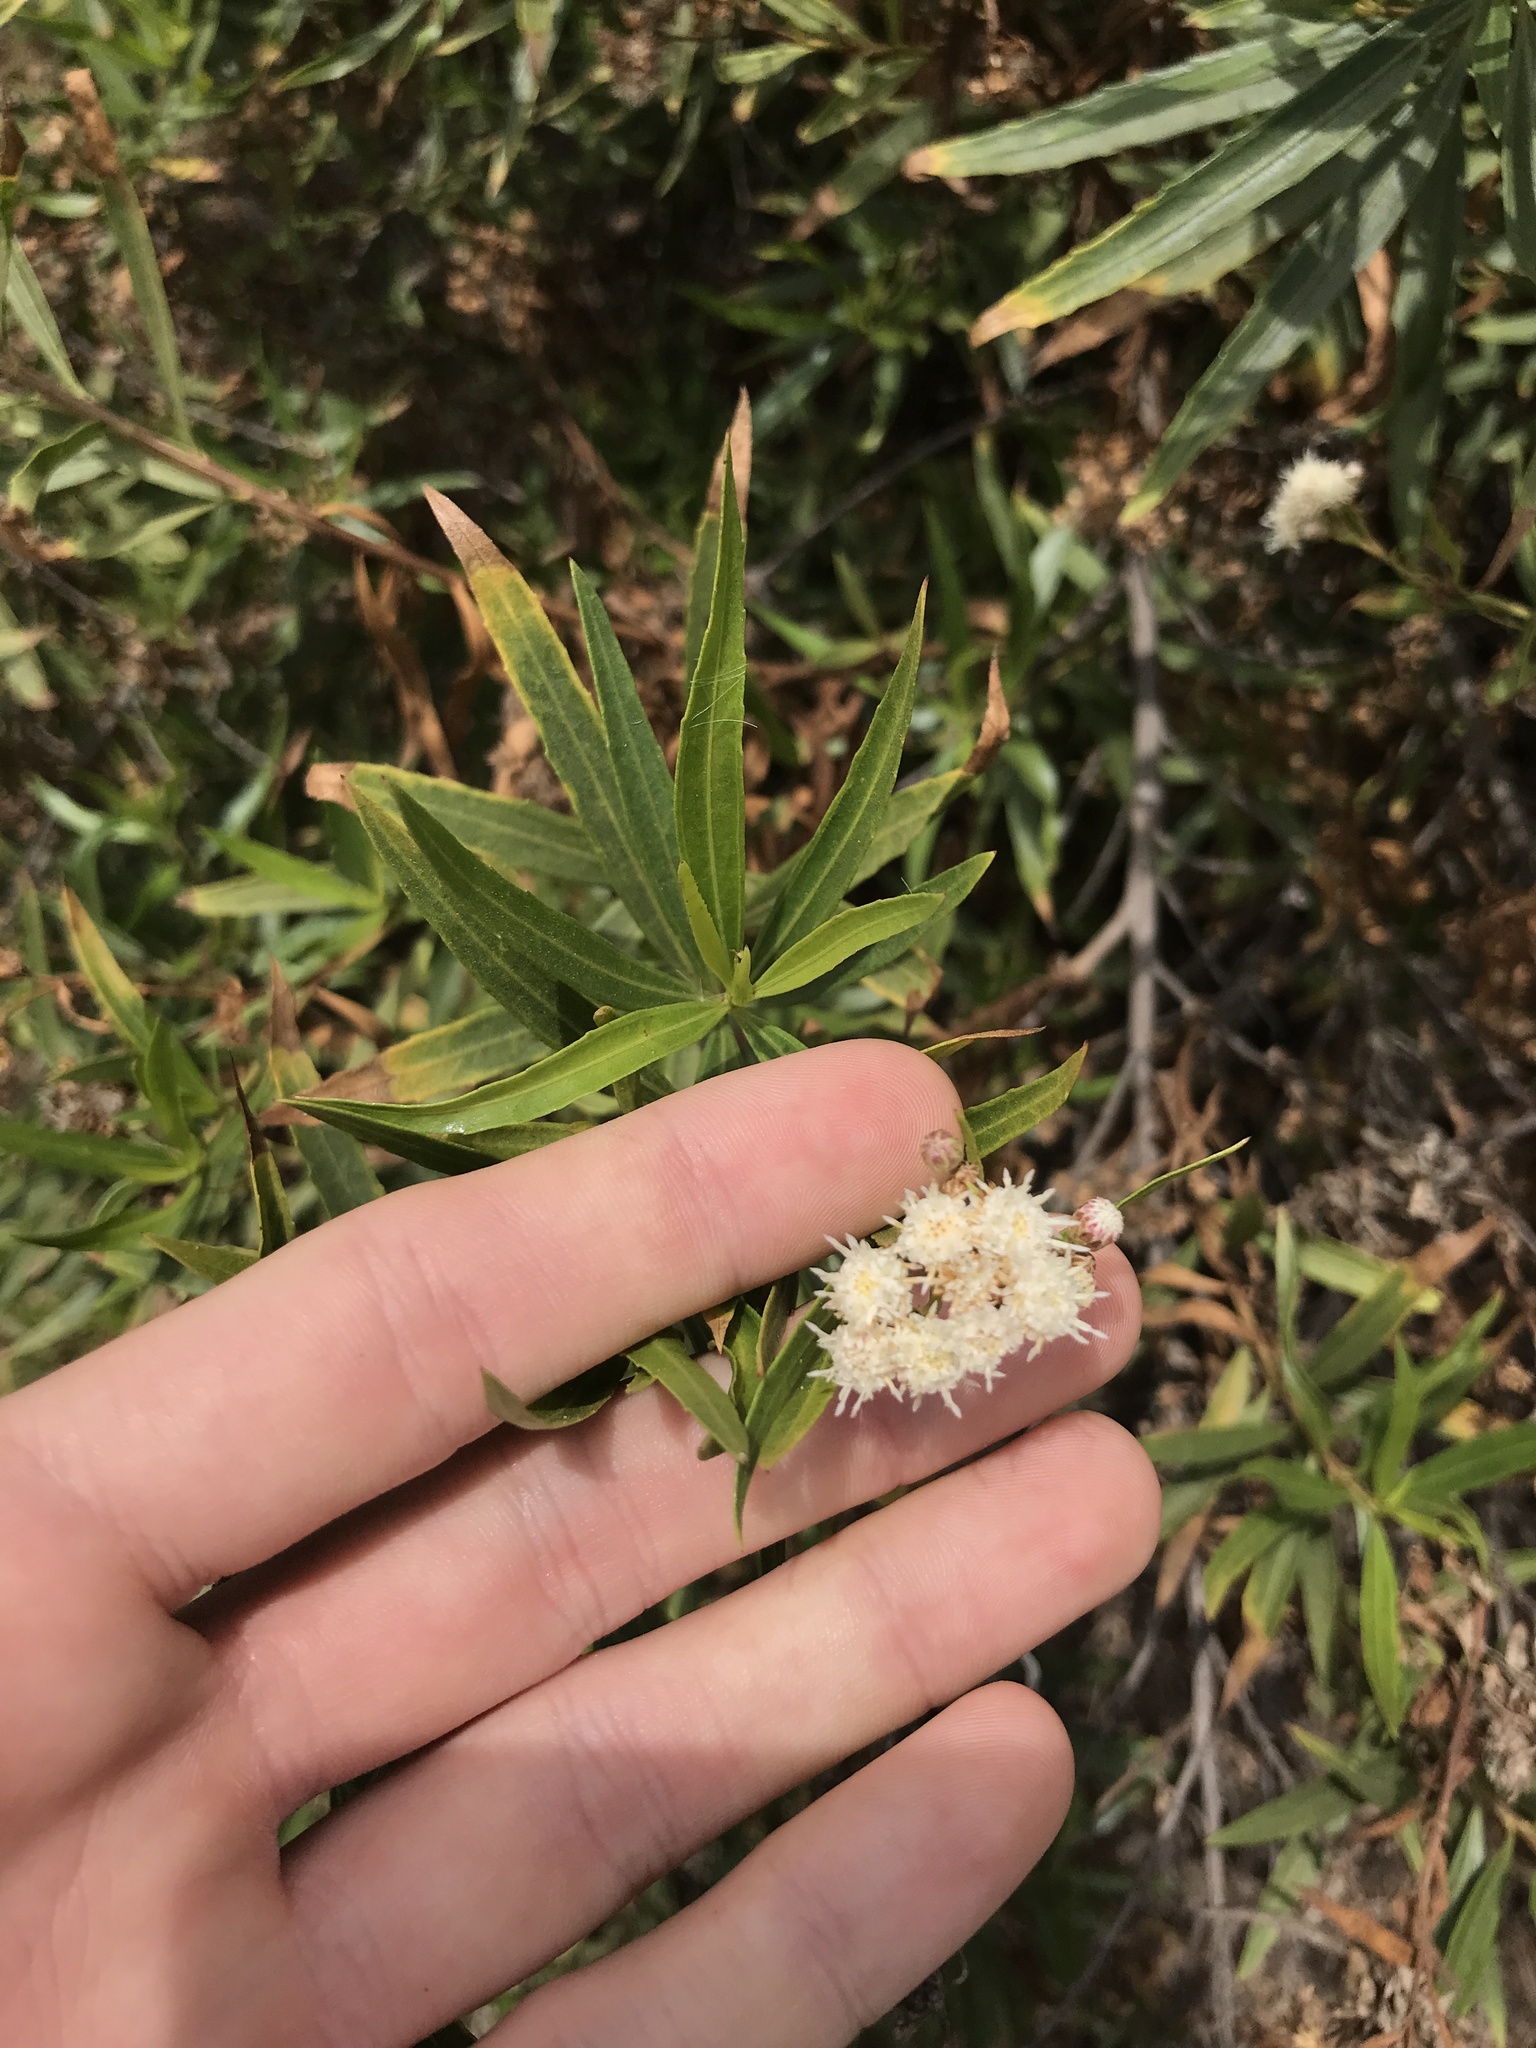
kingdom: Plantae
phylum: Tracheophyta
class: Magnoliopsida
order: Asterales
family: Asteraceae
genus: Baccharis
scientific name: Baccharis salicifolia
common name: Sticky baccharis
